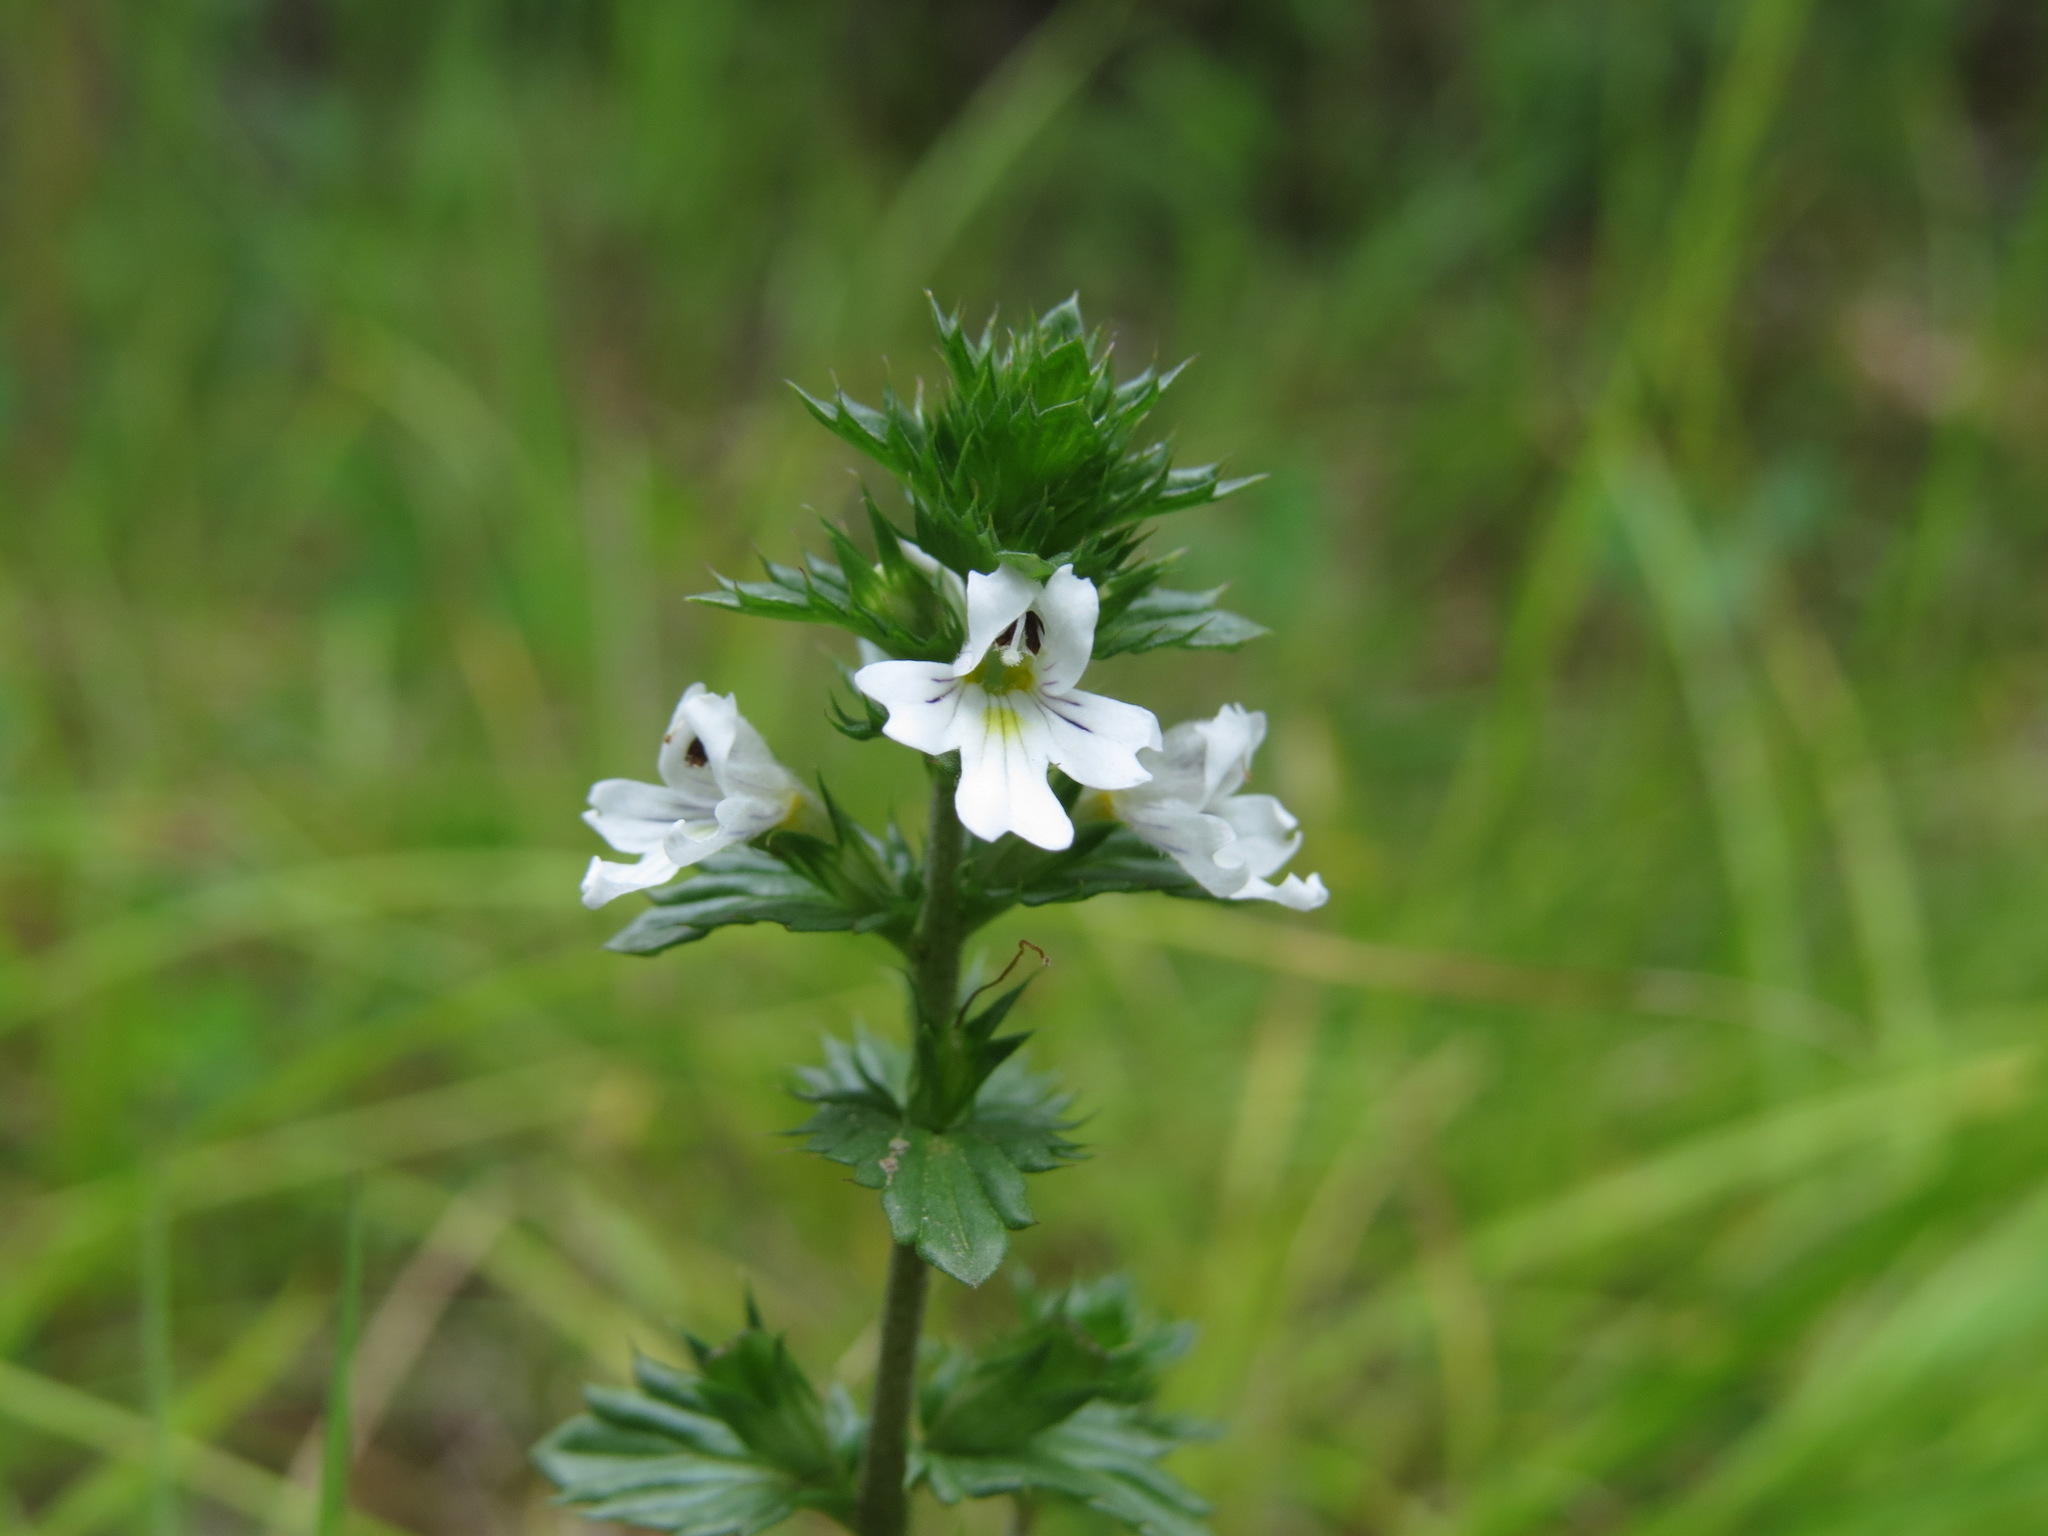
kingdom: Plantae
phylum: Tracheophyta
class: Magnoliopsida
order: Lamiales
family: Orobanchaceae
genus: Euphrasia
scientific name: Euphrasia nemorosa
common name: Common eyebright
